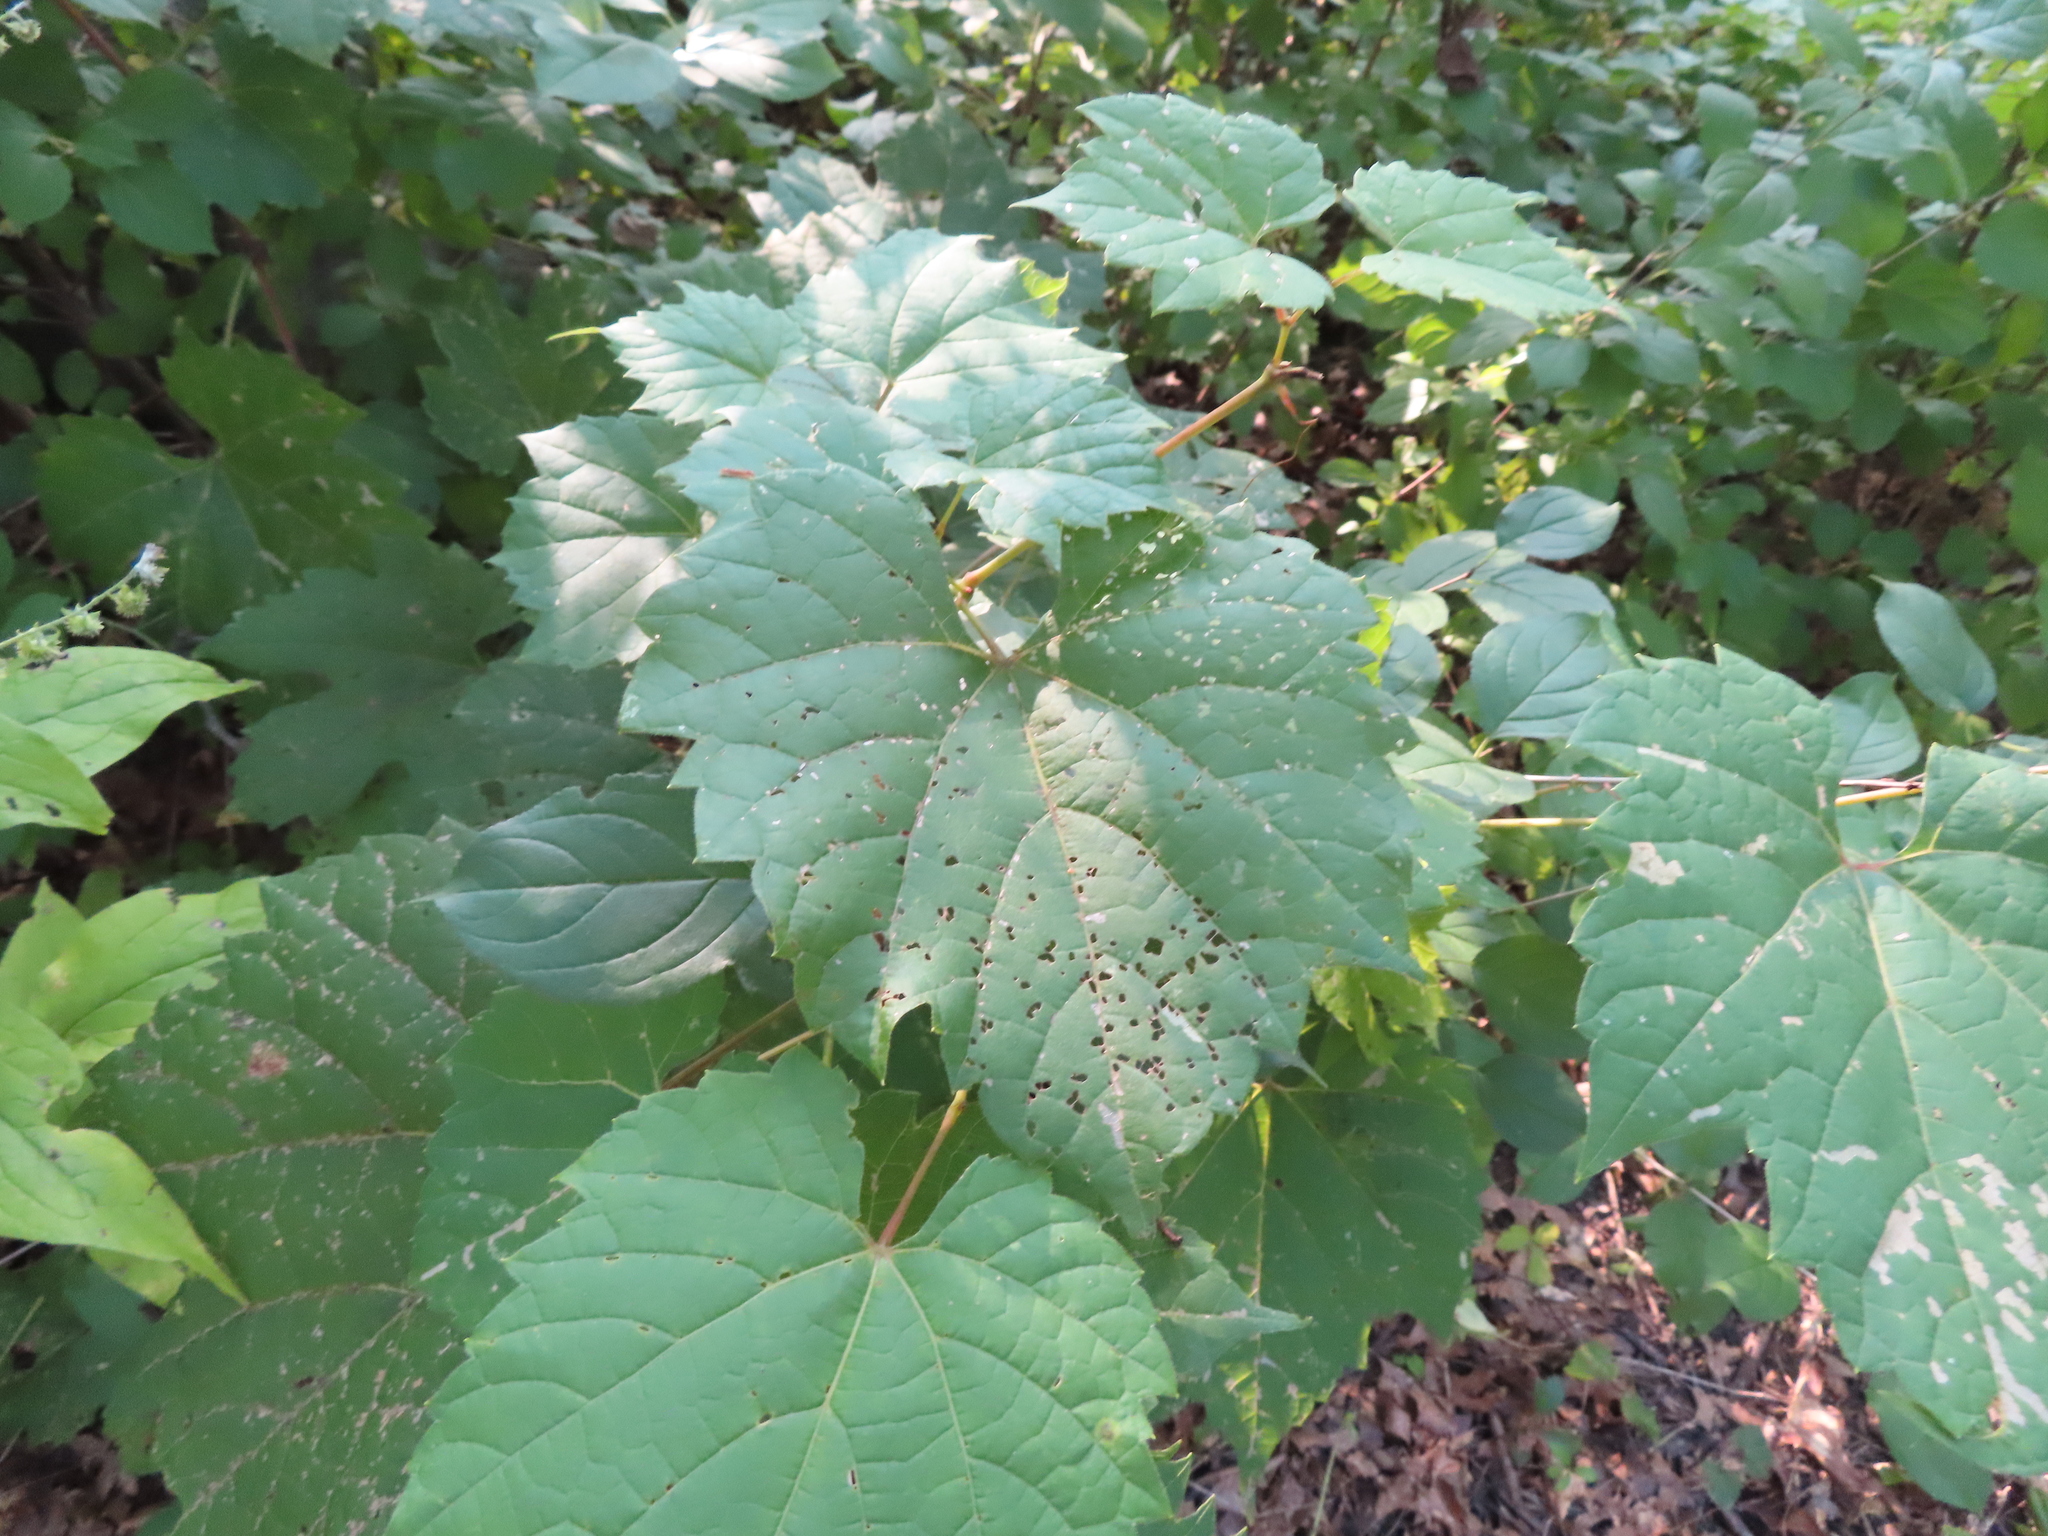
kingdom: Plantae
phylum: Tracheophyta
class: Magnoliopsida
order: Vitales
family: Vitaceae
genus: Vitis
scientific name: Vitis riparia
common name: Frost grape
